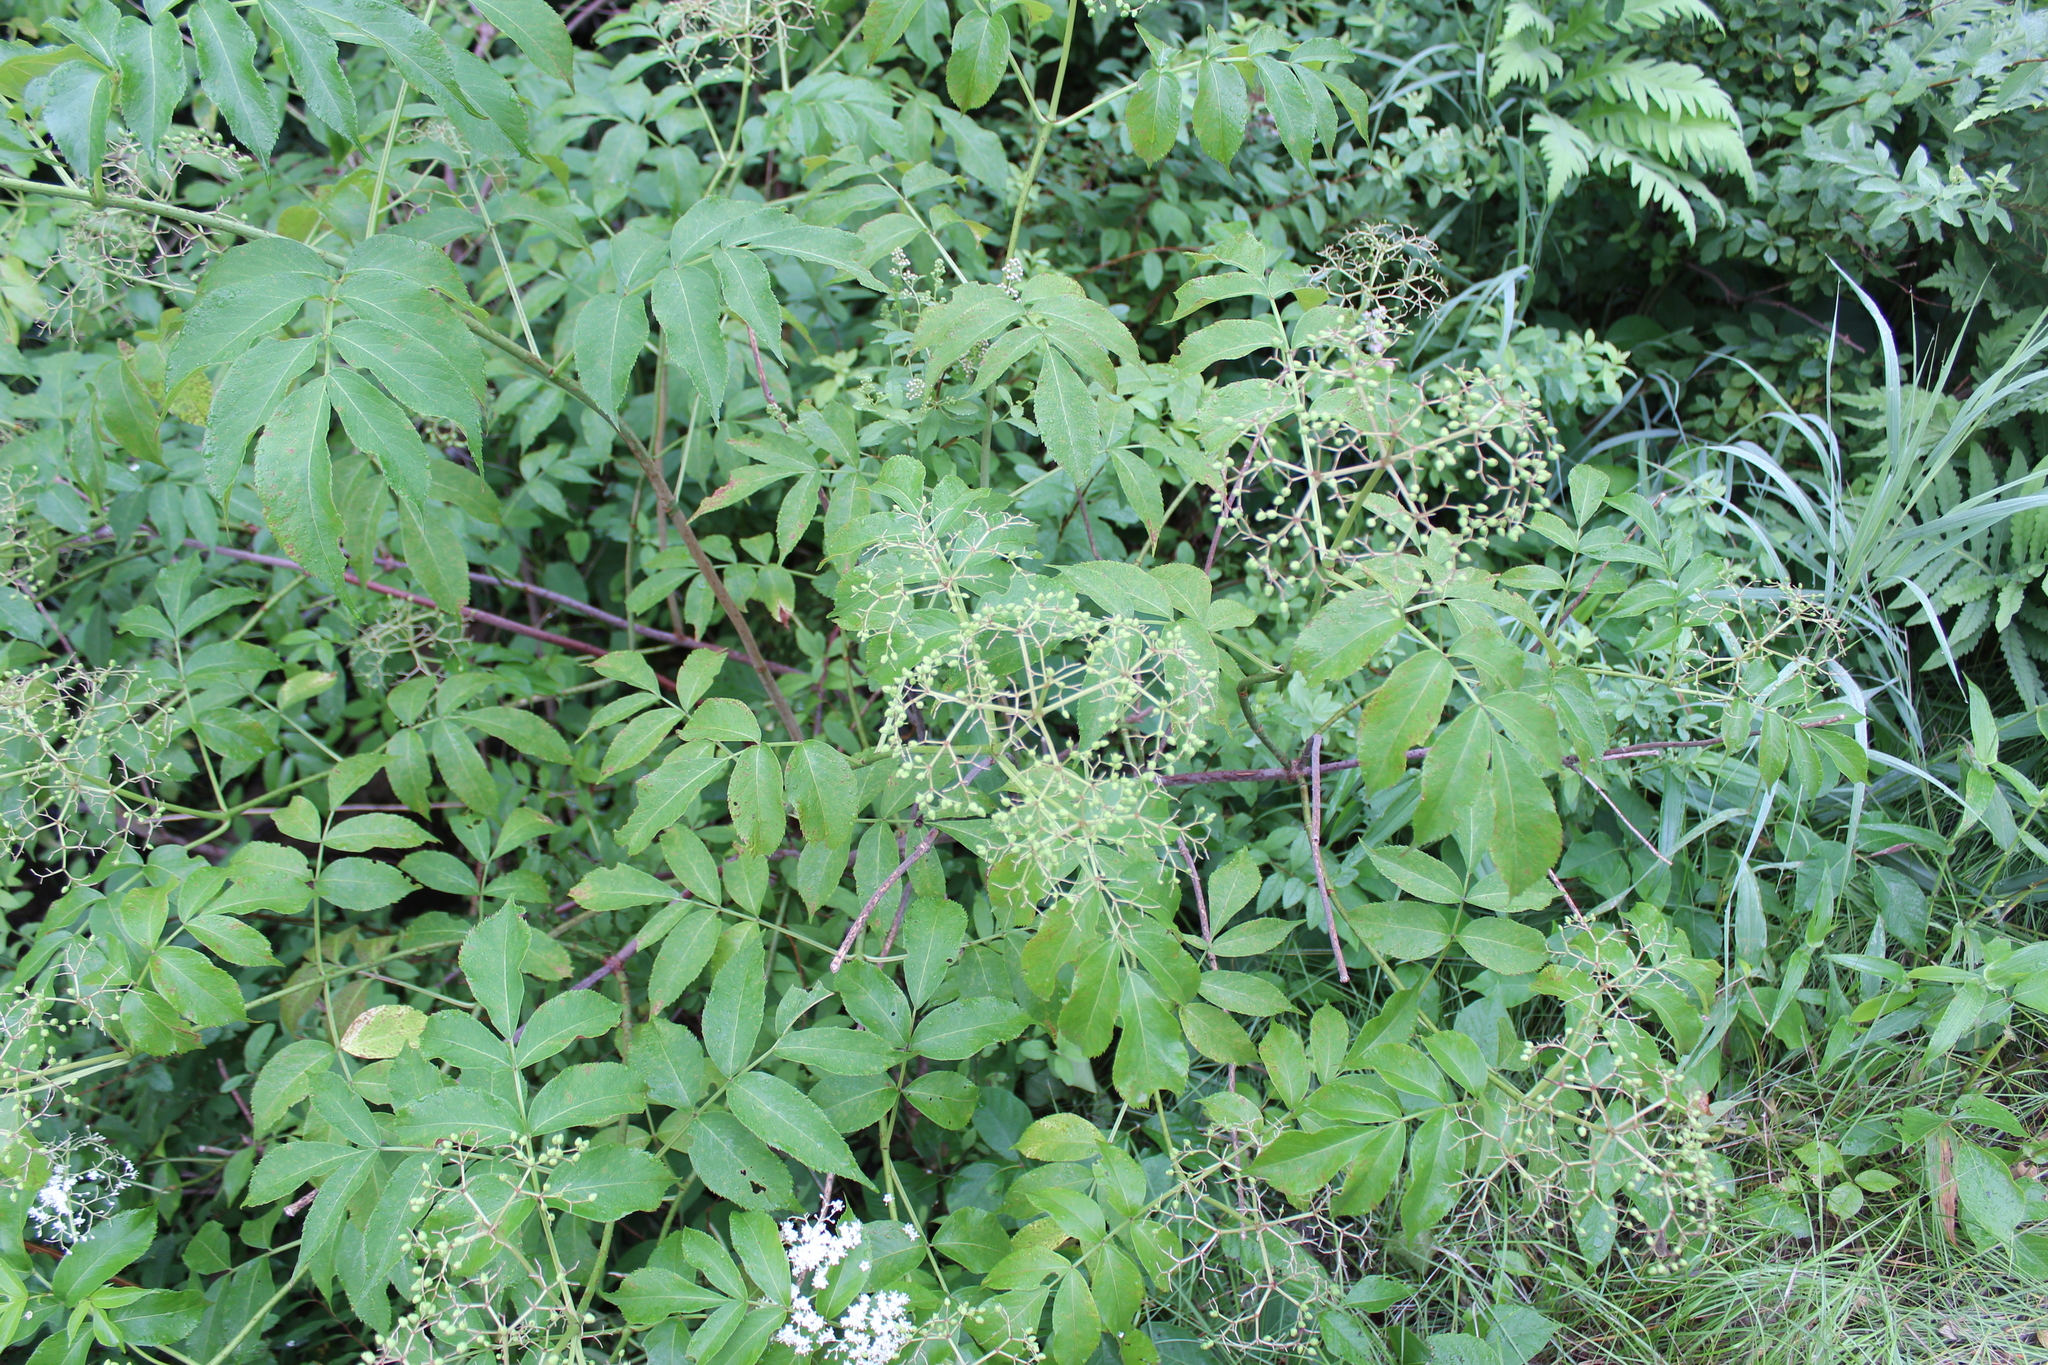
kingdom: Plantae
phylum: Tracheophyta
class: Magnoliopsida
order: Dipsacales
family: Viburnaceae
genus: Sambucus
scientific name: Sambucus canadensis
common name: American elder
